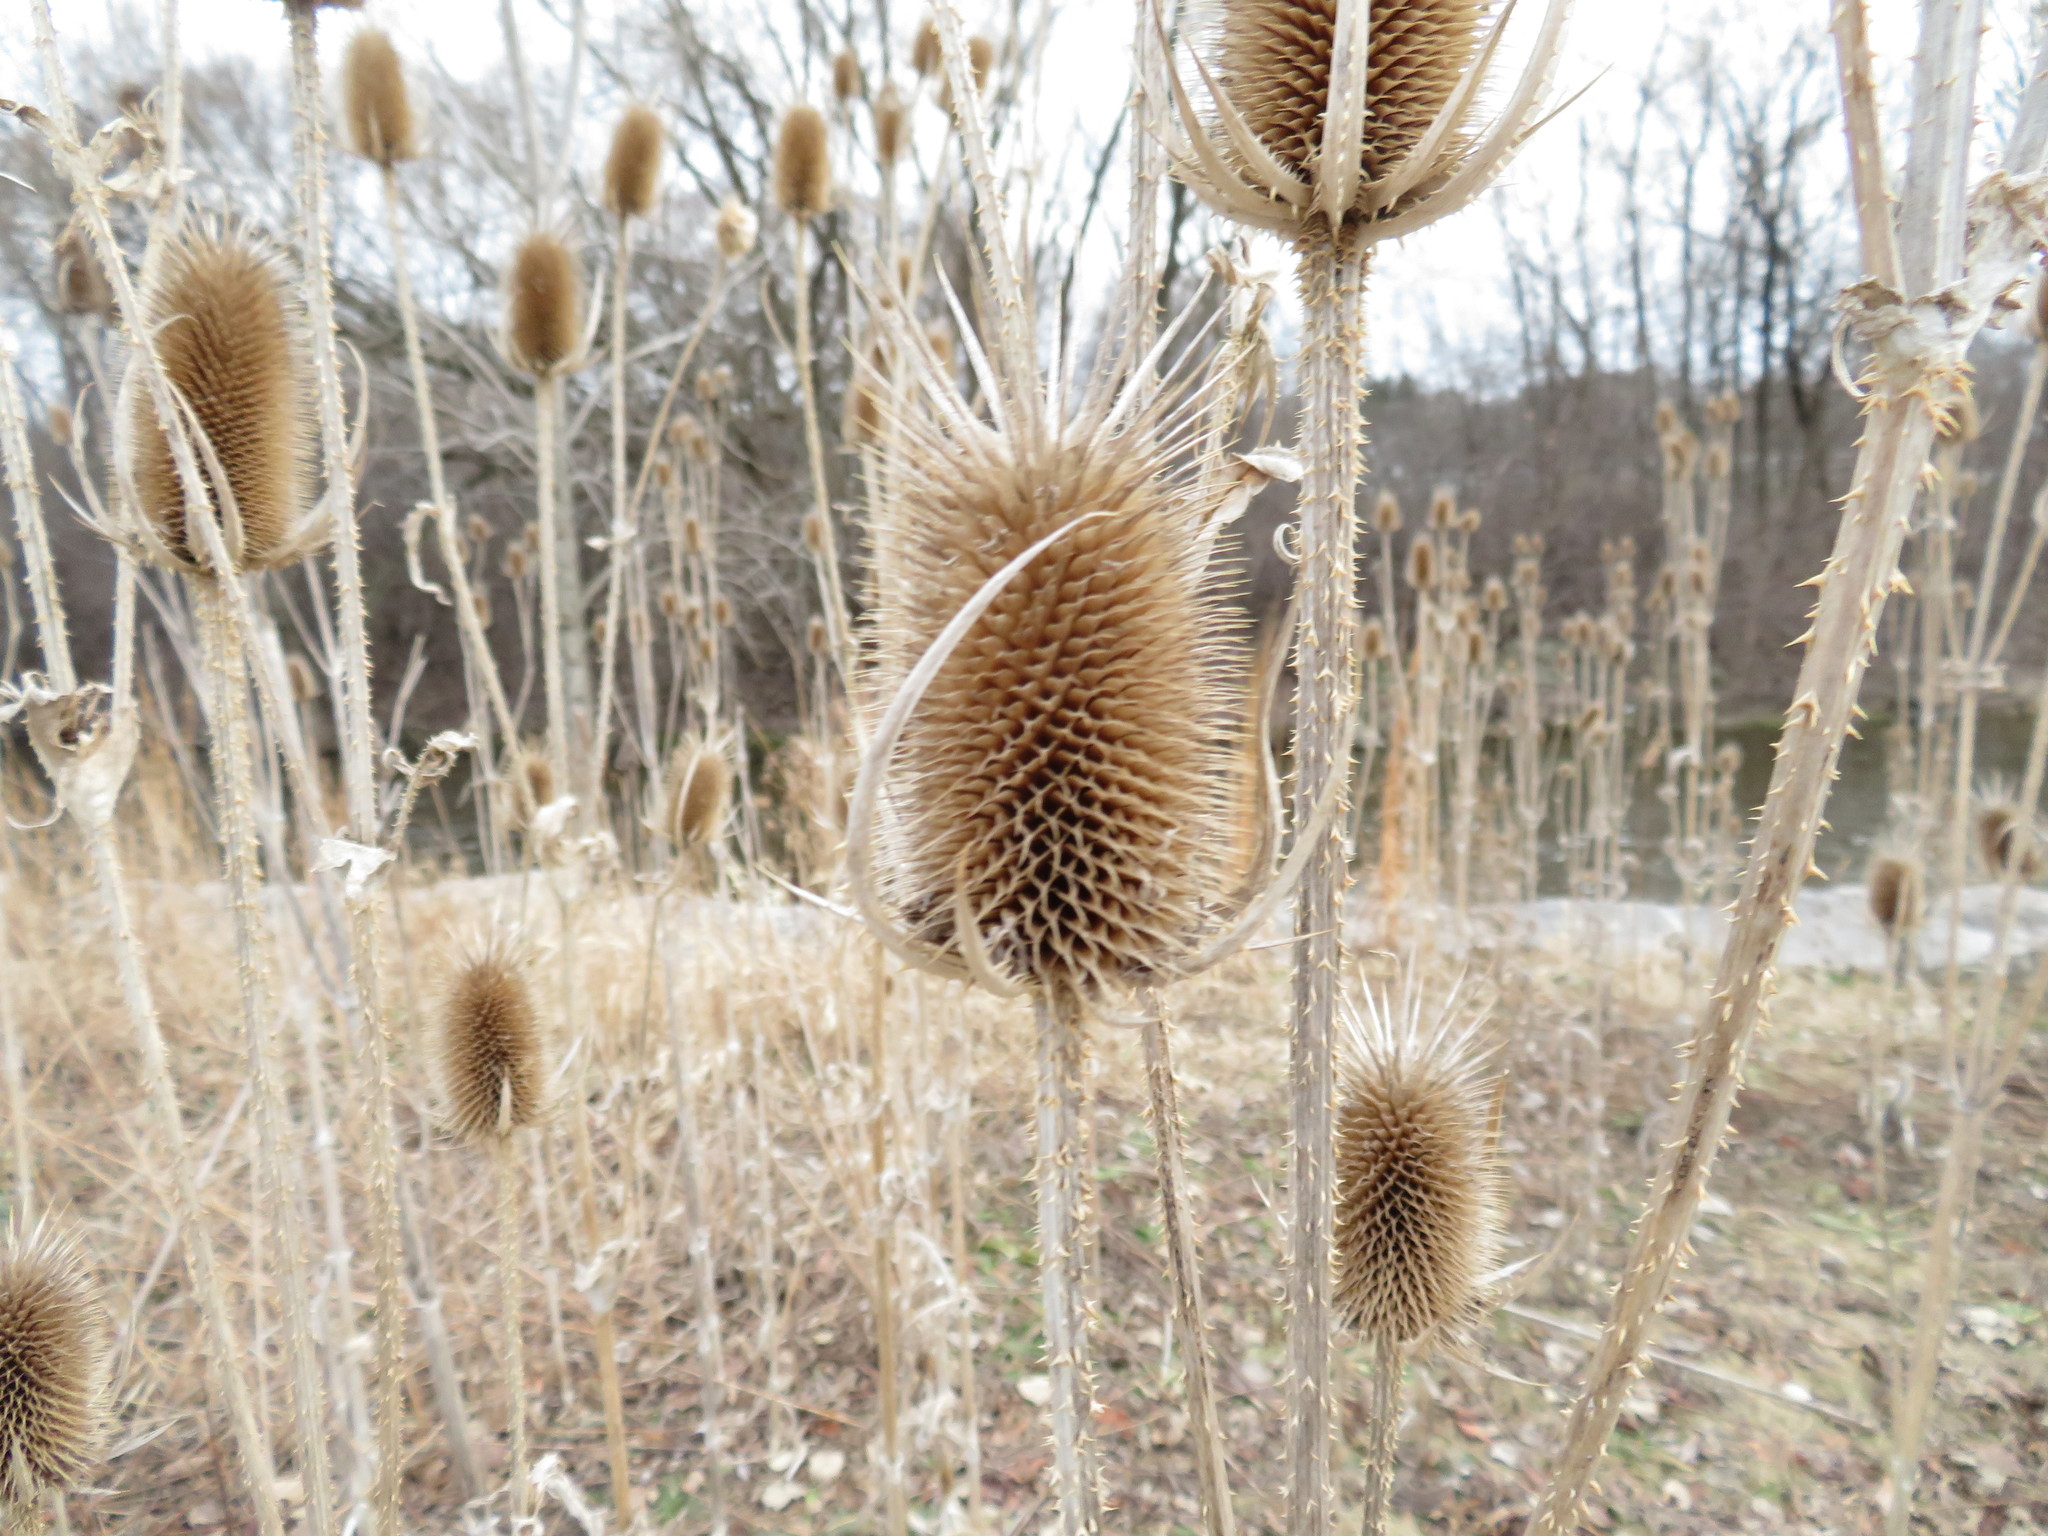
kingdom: Plantae
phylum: Tracheophyta
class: Magnoliopsida
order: Dipsacales
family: Caprifoliaceae
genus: Dipsacus
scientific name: Dipsacus laciniatus
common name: Cut-leaved teasel
